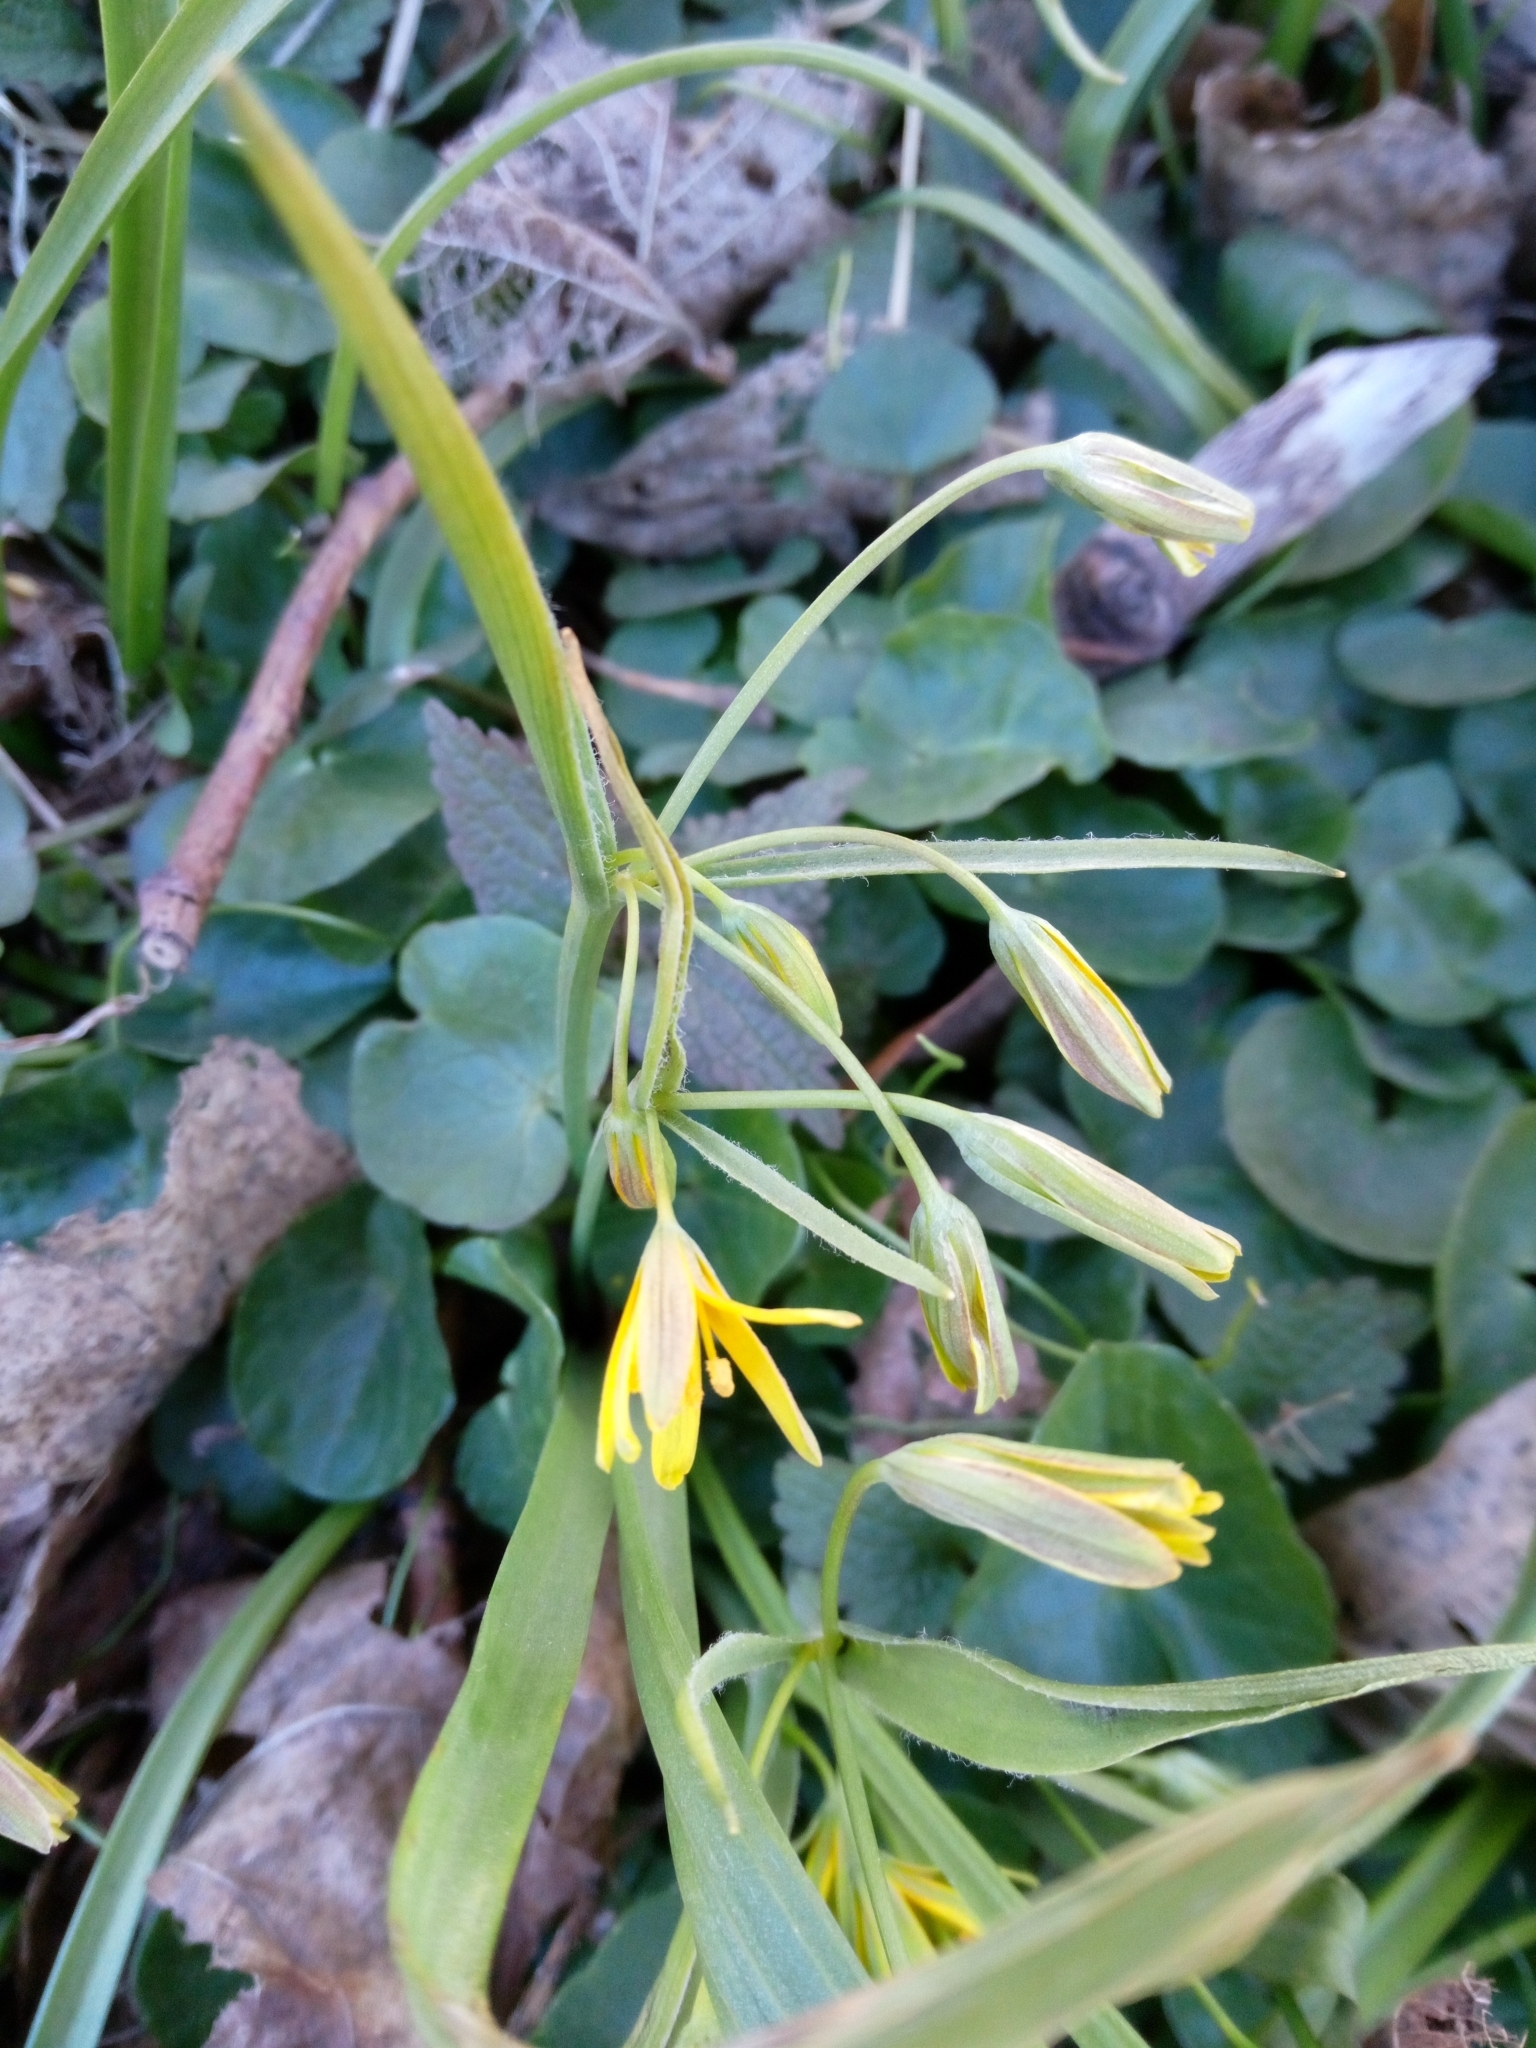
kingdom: Plantae
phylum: Tracheophyta
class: Liliopsida
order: Liliales
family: Liliaceae
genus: Gagea
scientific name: Gagea lutea
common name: Yellow star-of-bethlehem
